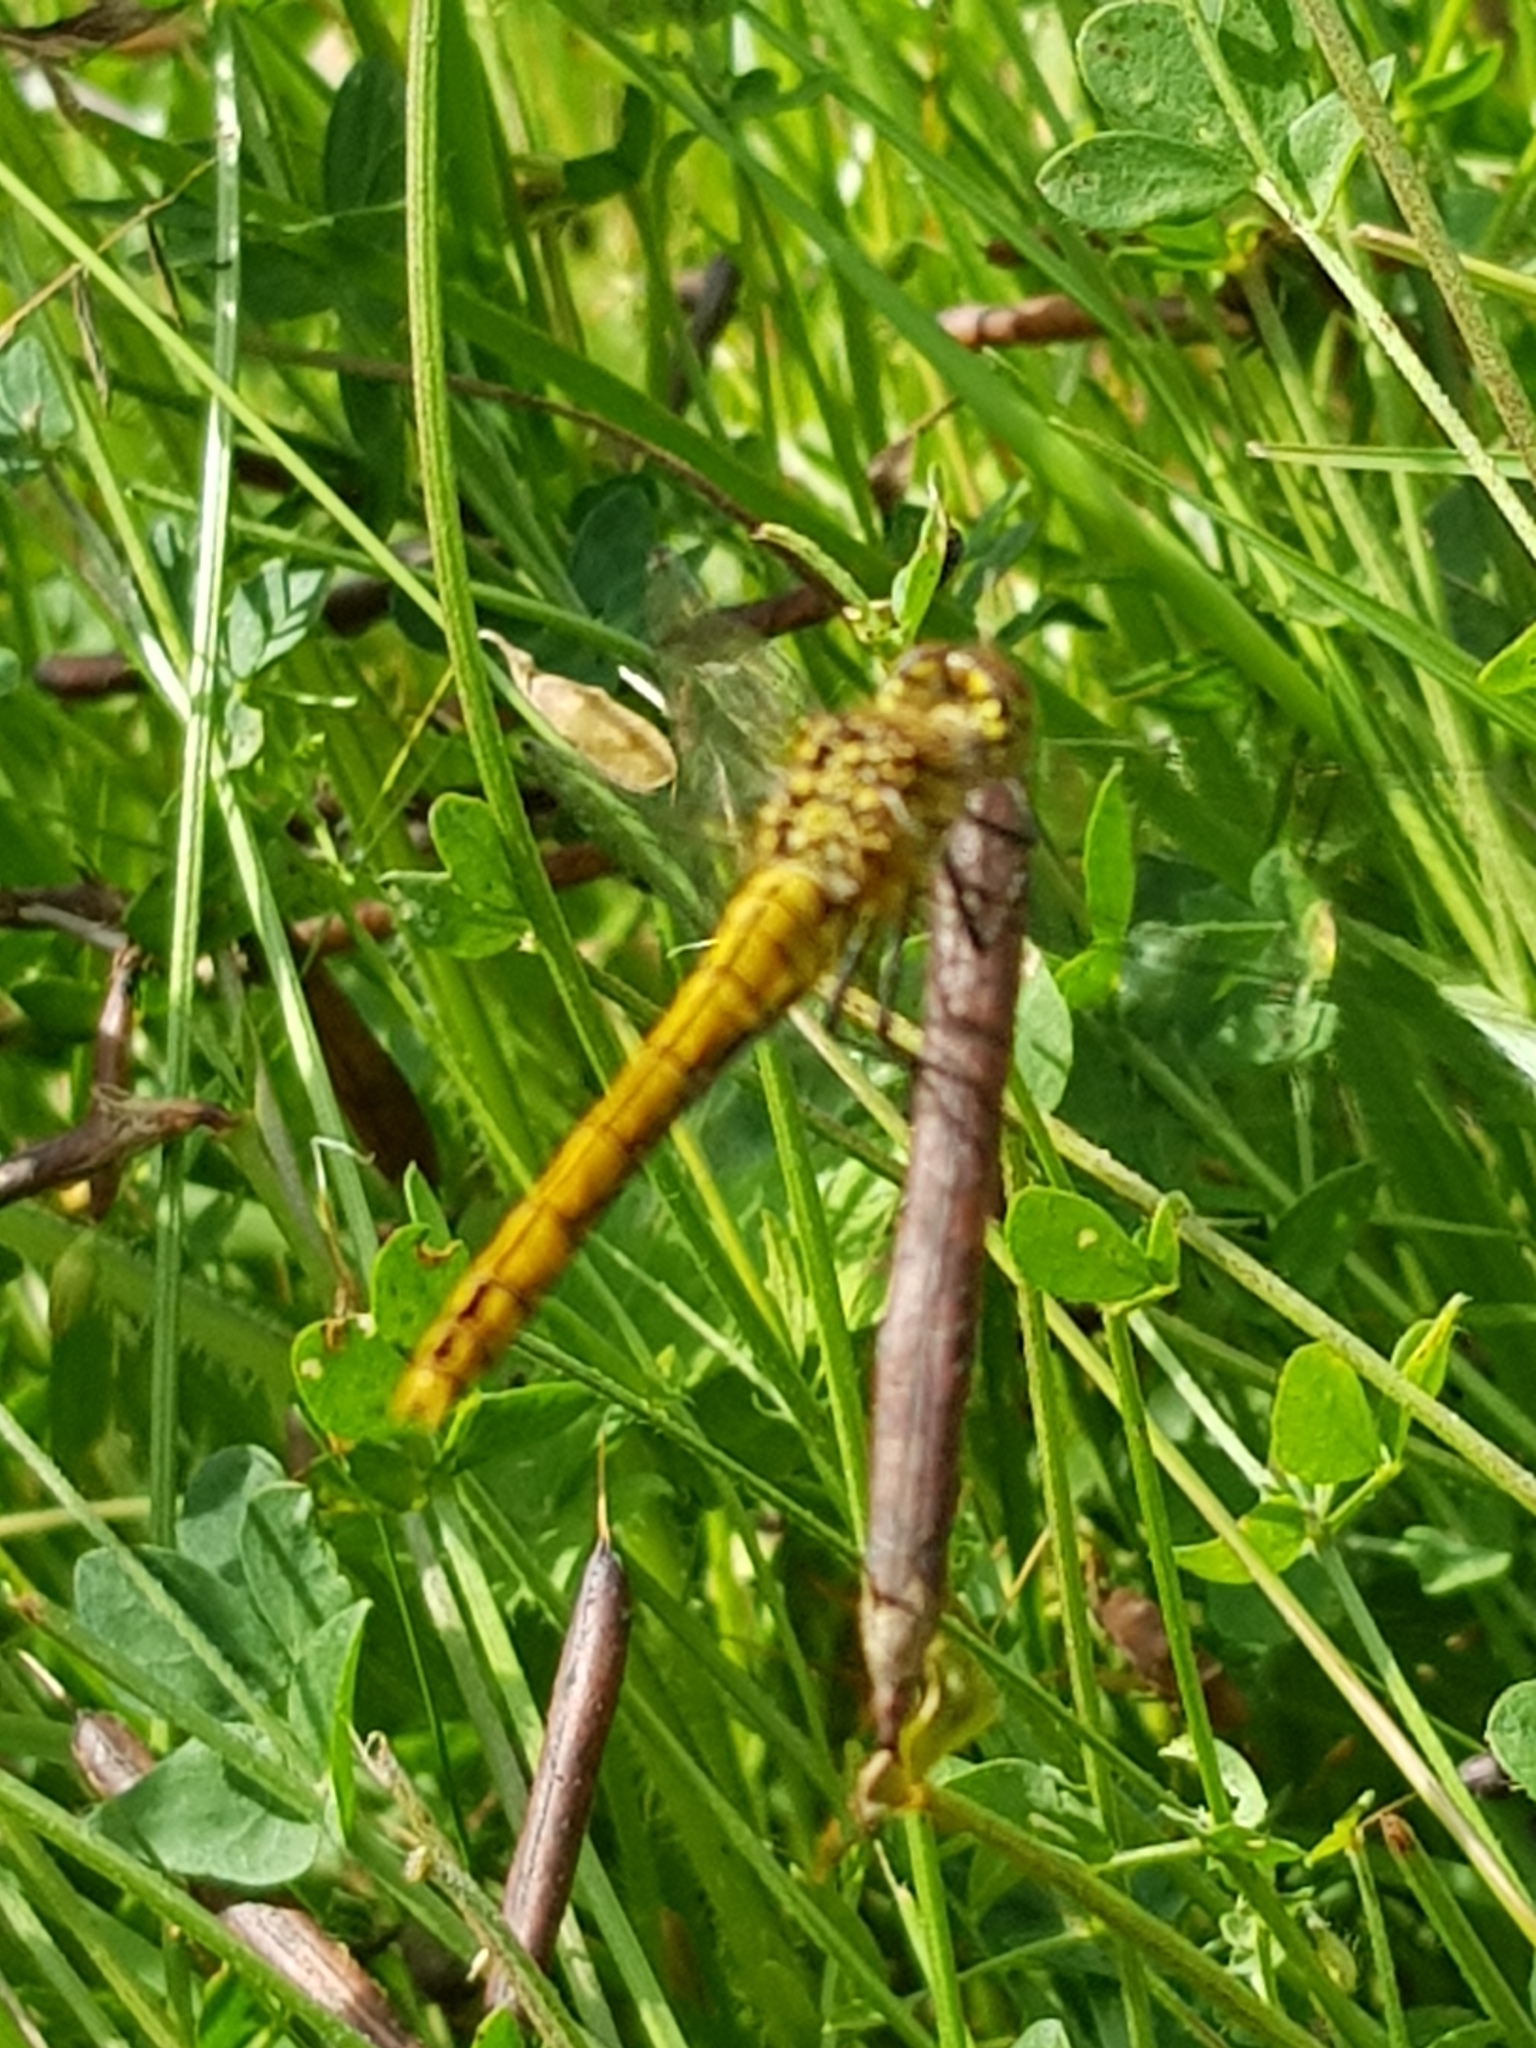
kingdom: Animalia
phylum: Arthropoda
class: Insecta
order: Odonata
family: Libellulidae
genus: Sympetrum
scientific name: Sympetrum sanguineum
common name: Ruddy darter
